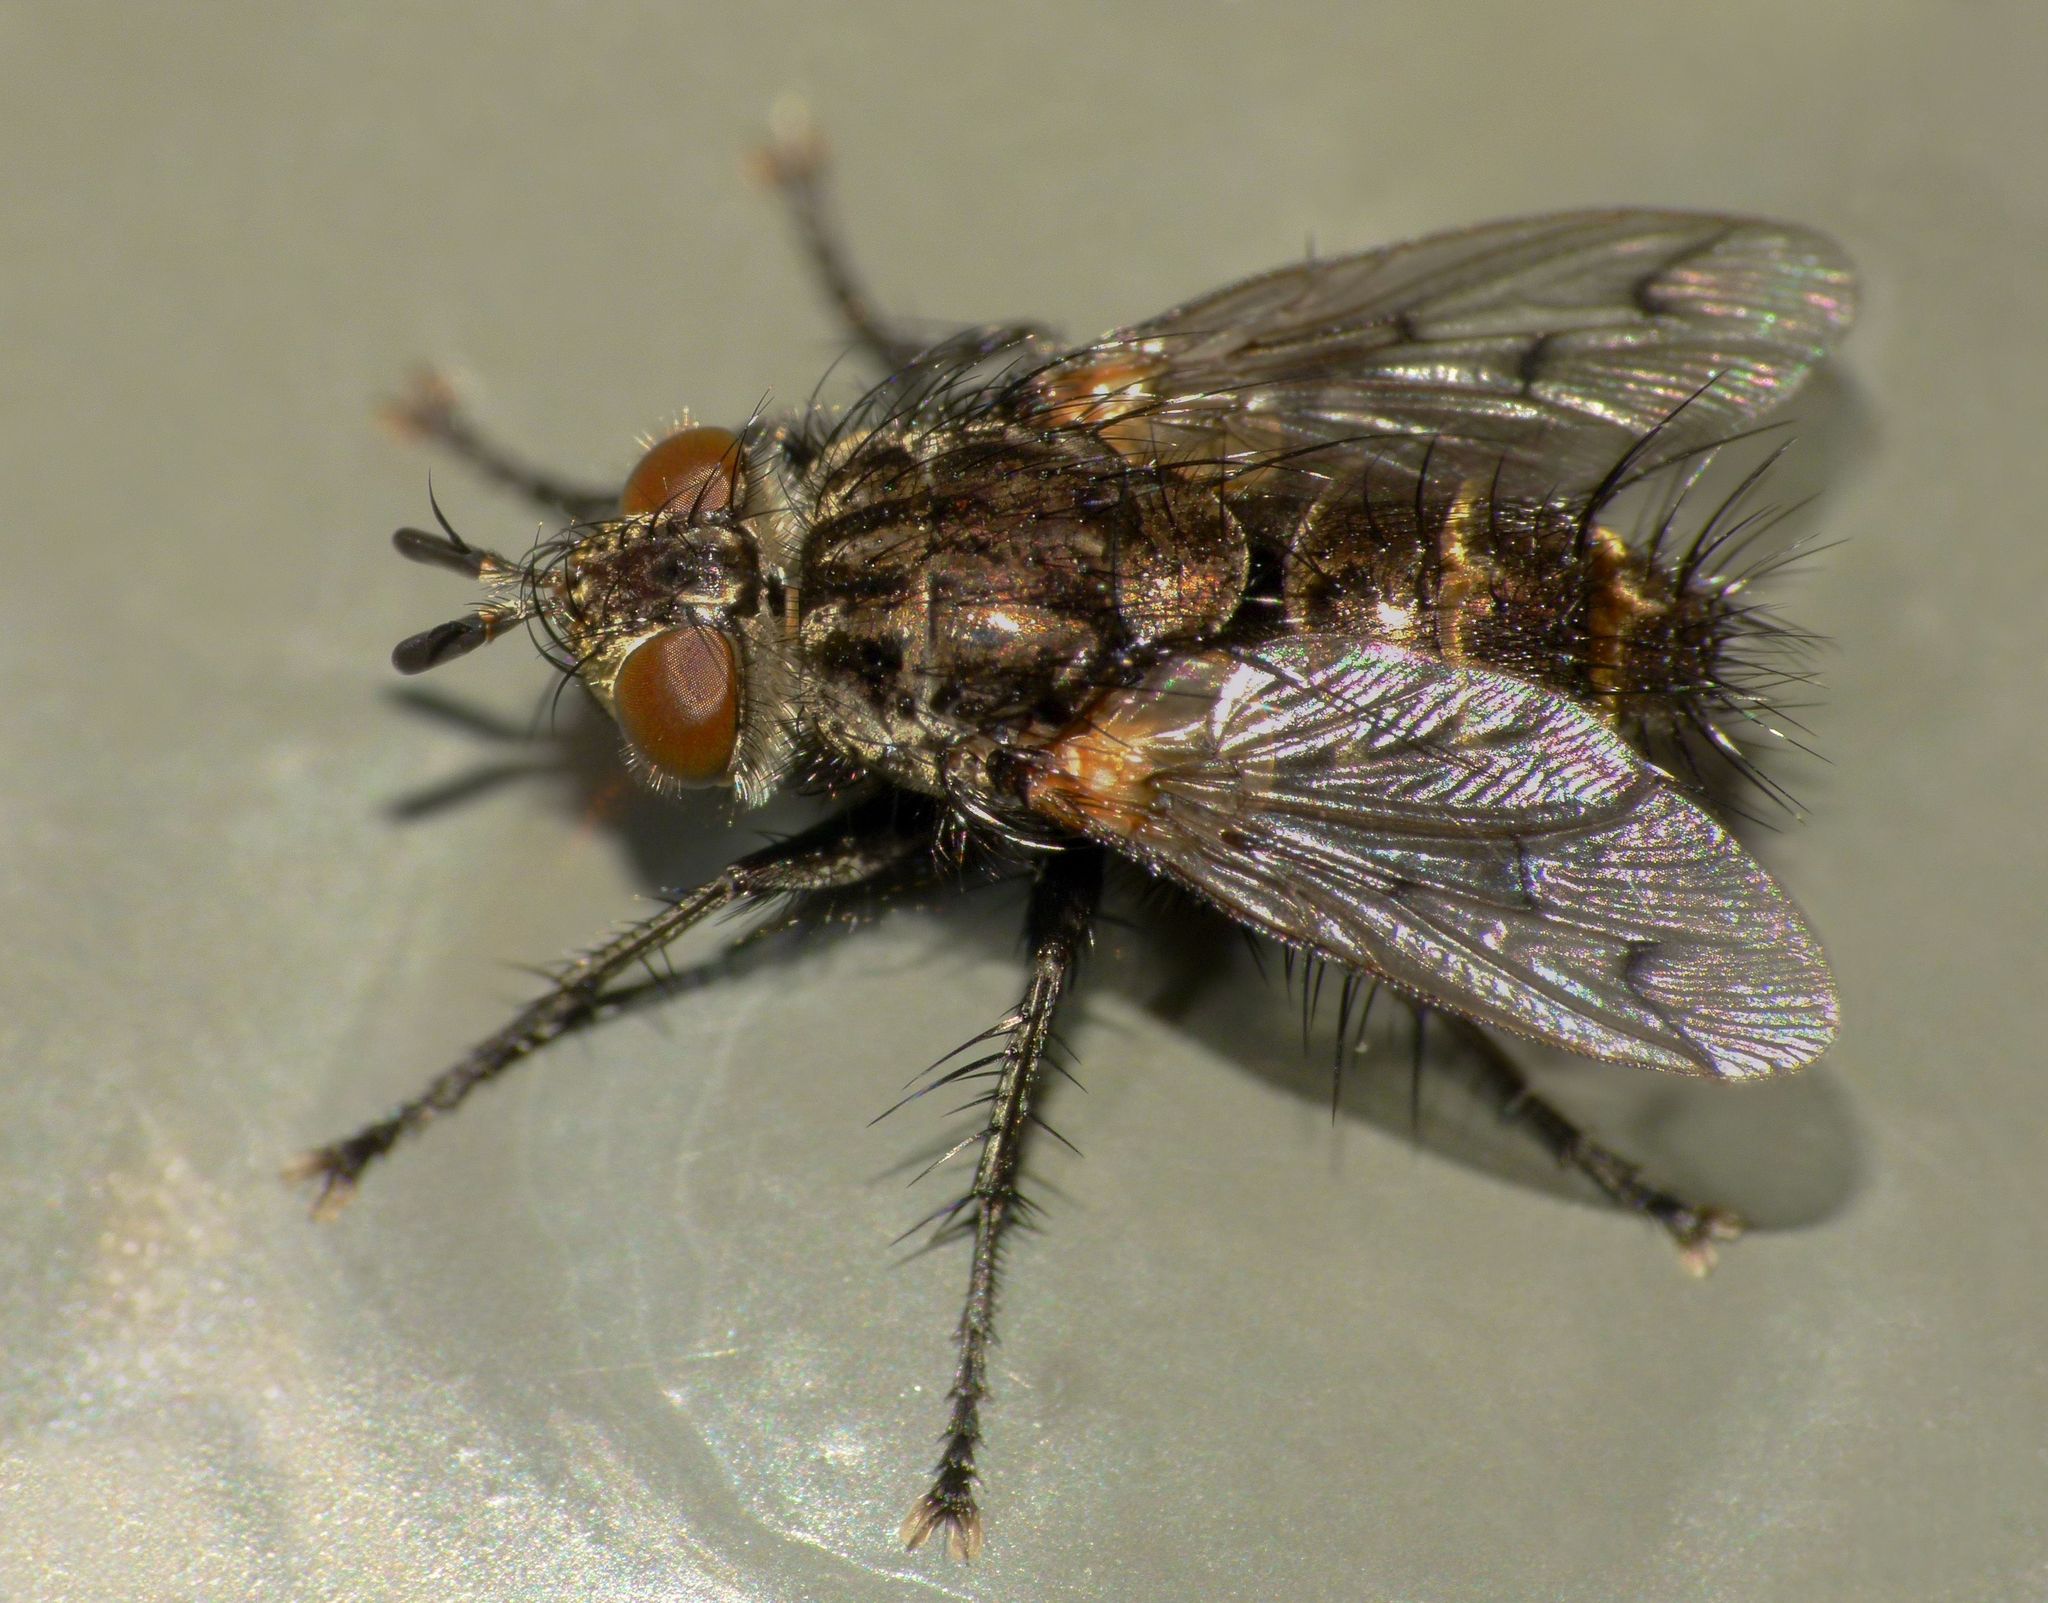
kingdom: Animalia
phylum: Arthropoda
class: Insecta
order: Diptera
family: Tachinidae
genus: Calcager
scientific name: Calcager apertum
